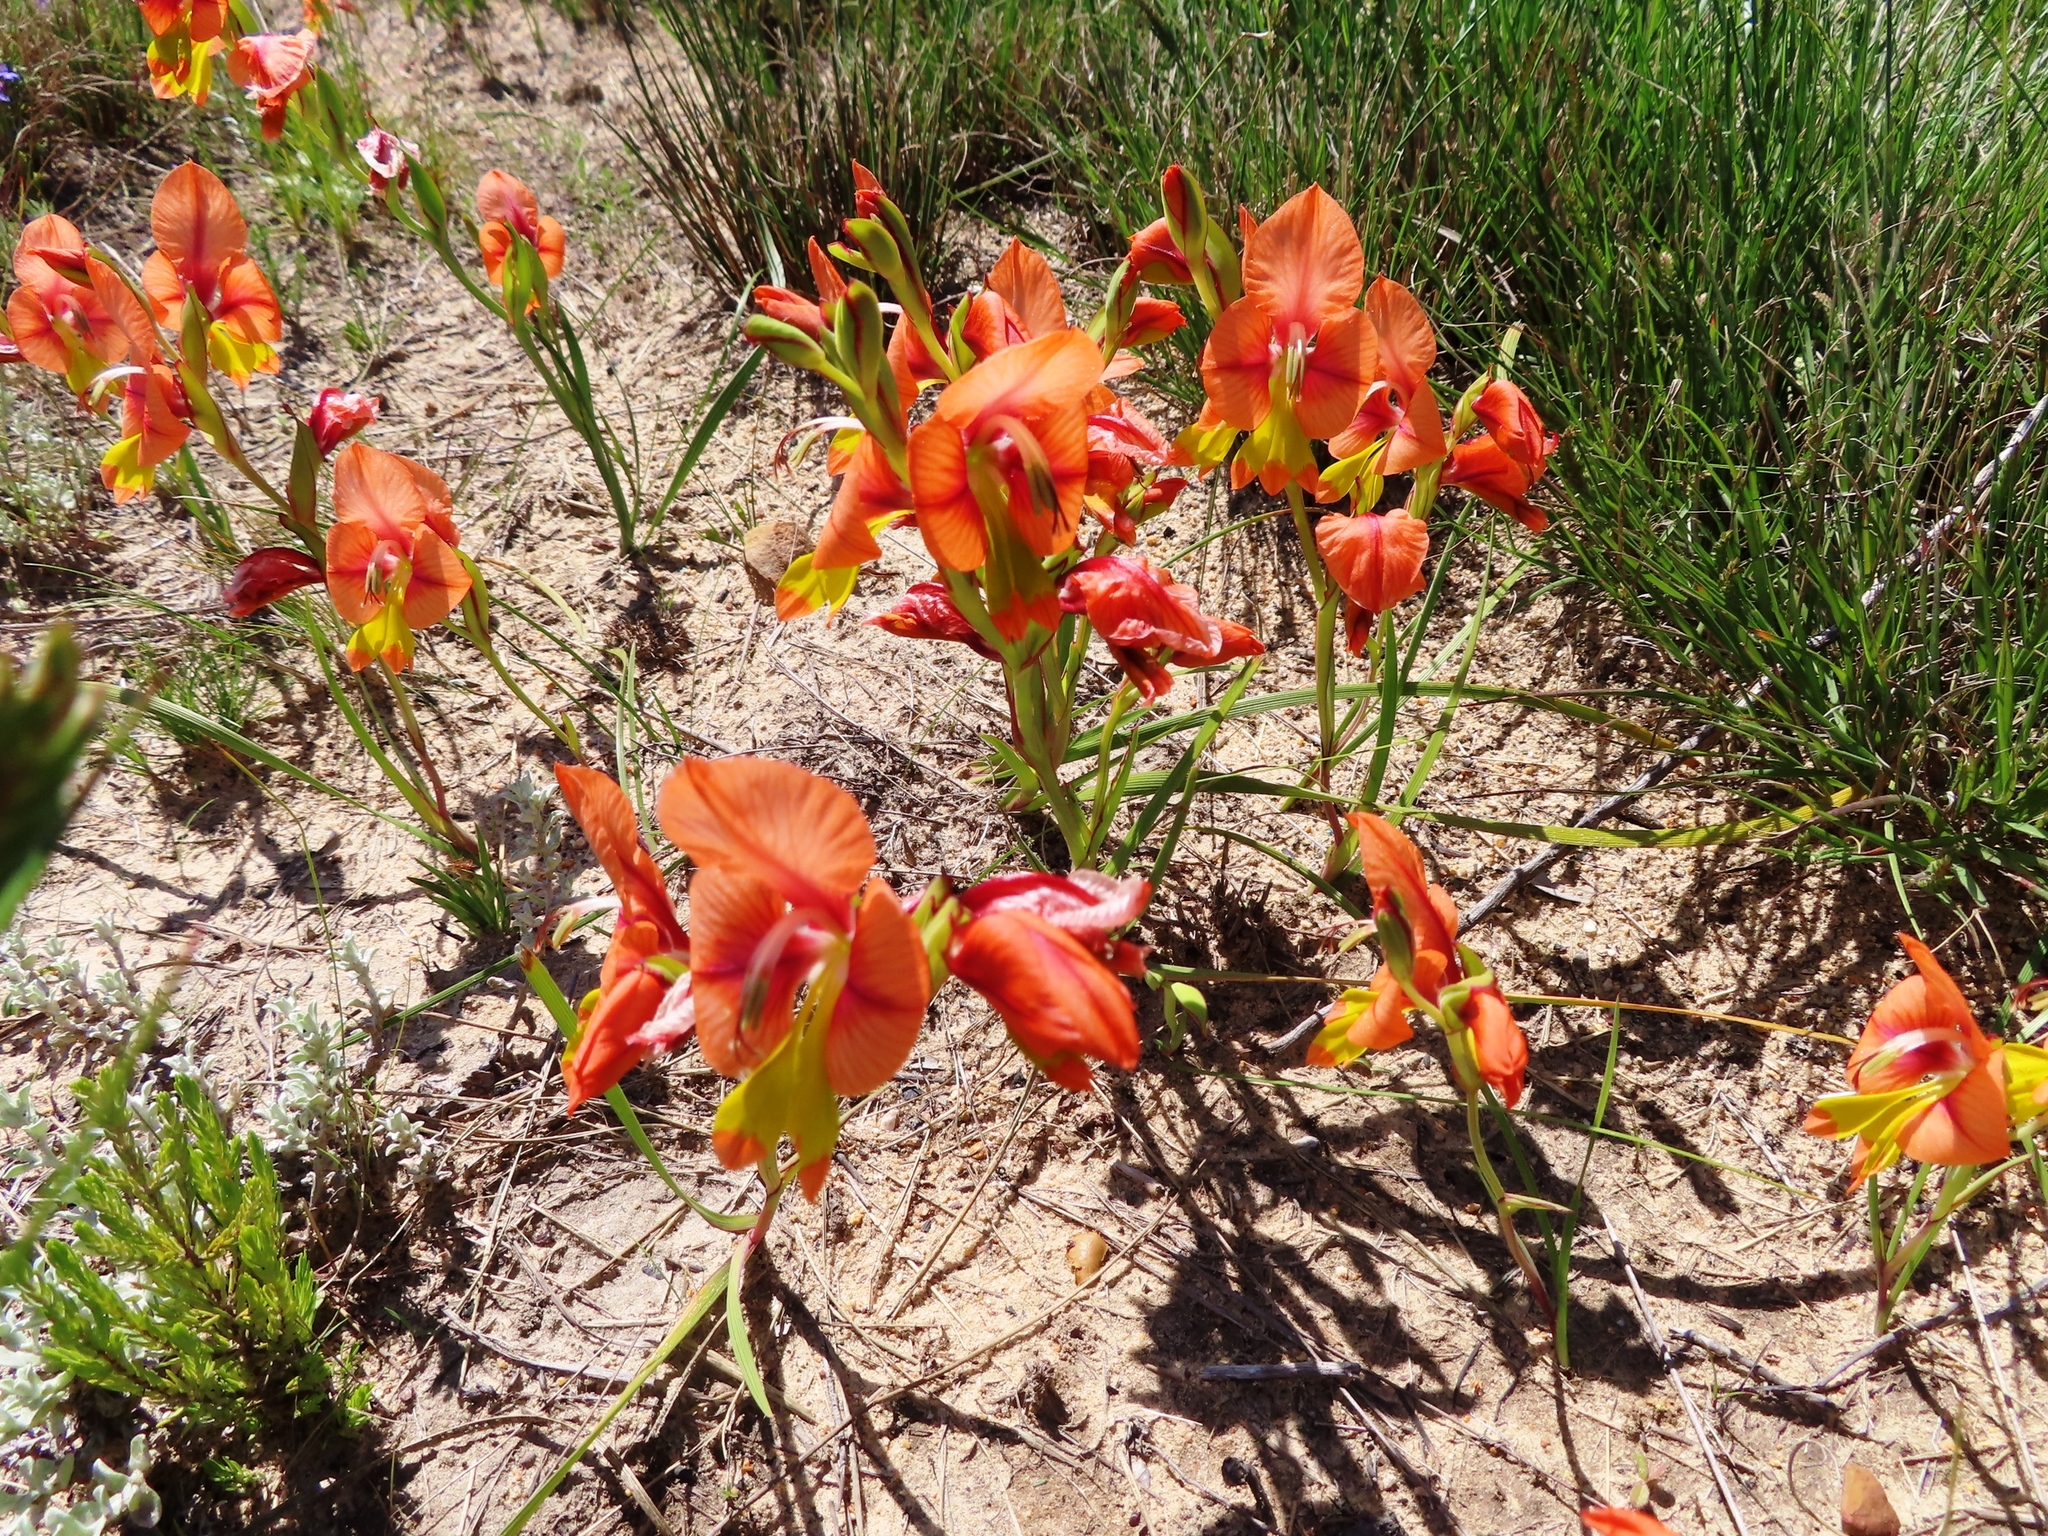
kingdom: Plantae
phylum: Tracheophyta
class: Liliopsida
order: Asparagales
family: Iridaceae
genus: Gladiolus
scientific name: Gladiolus alatus
